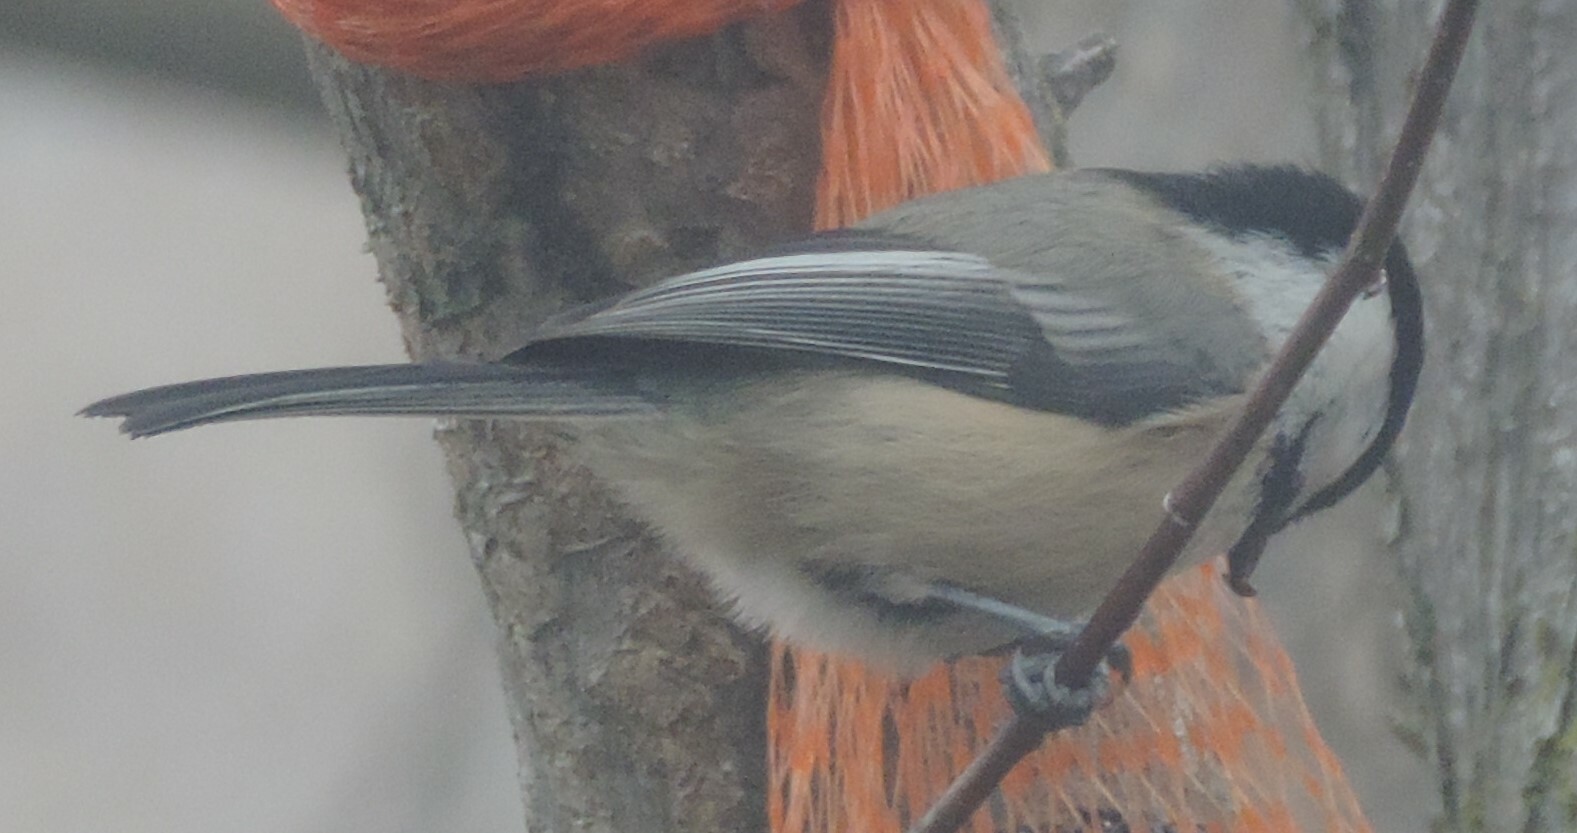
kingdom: Animalia
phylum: Chordata
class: Aves
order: Passeriformes
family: Paridae
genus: Poecile
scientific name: Poecile atricapillus
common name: Black-capped chickadee
